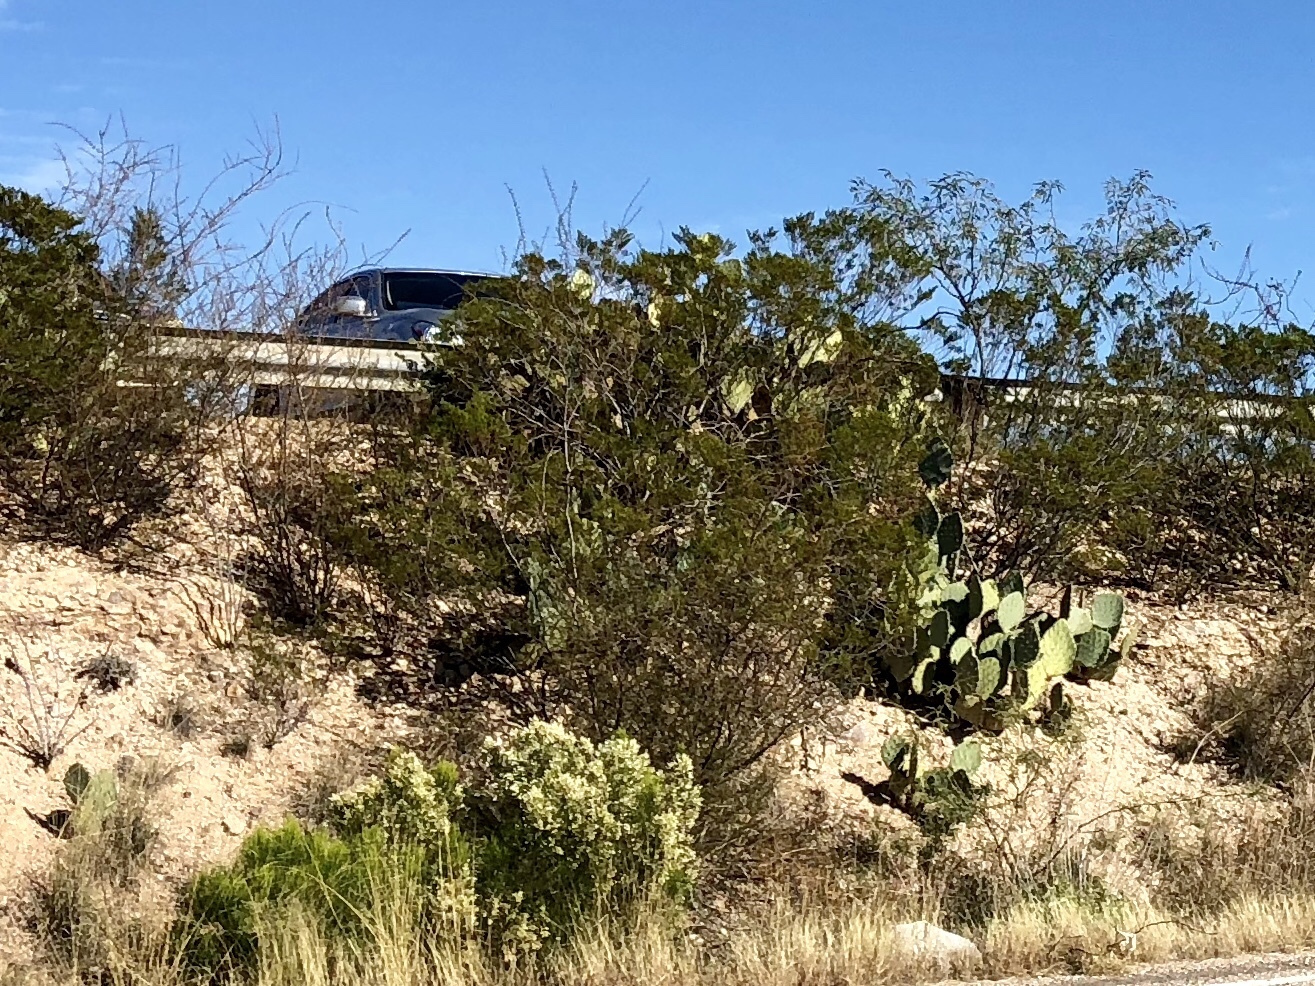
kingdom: Plantae
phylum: Tracheophyta
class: Magnoliopsida
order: Zygophyllales
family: Zygophyllaceae
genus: Larrea
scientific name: Larrea tridentata
